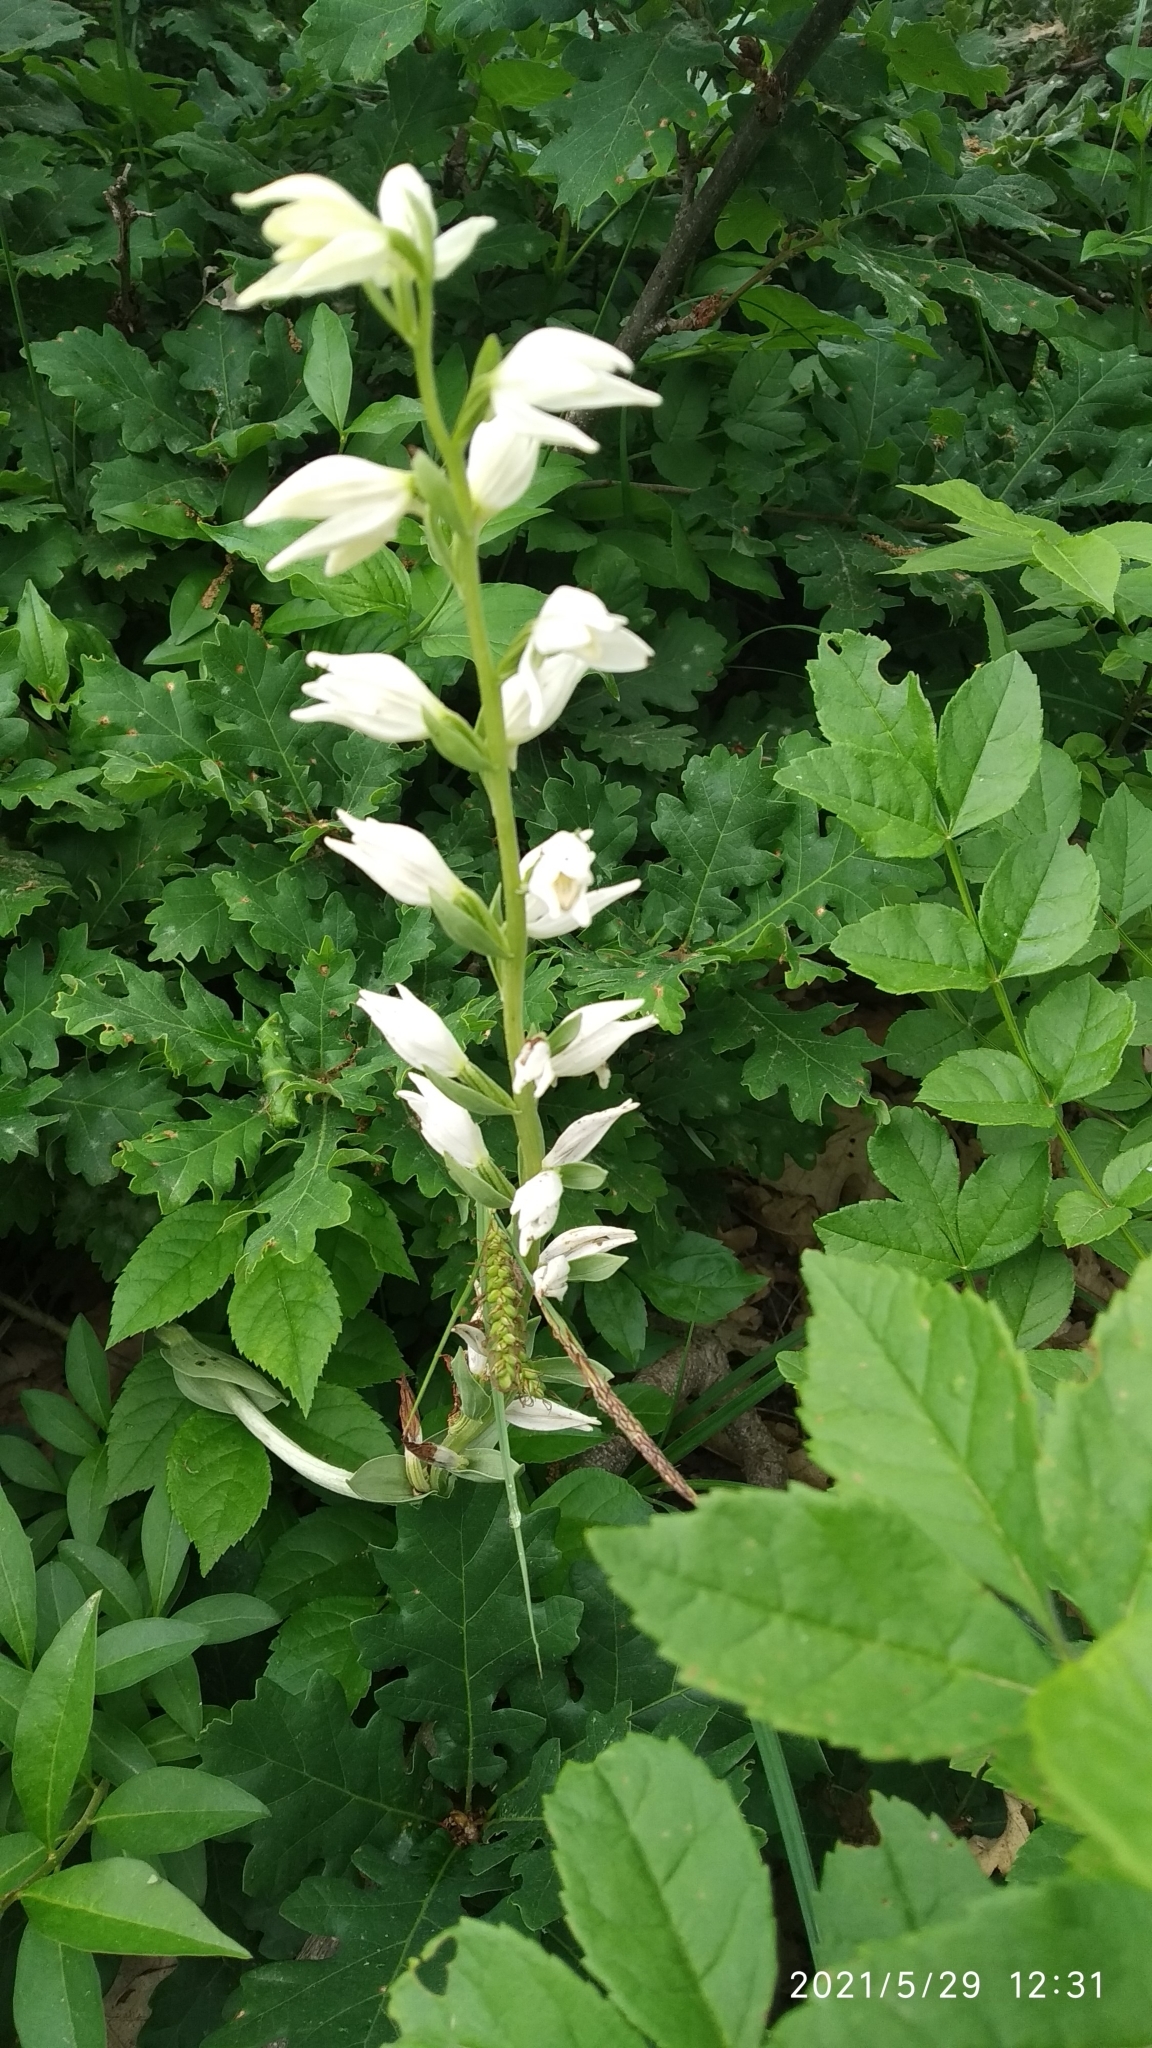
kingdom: Plantae
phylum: Tracheophyta
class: Liliopsida
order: Asparagales
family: Orchidaceae
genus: Cephalanthera
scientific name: Cephalanthera longifolia
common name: Narrow-leaved helleborine
